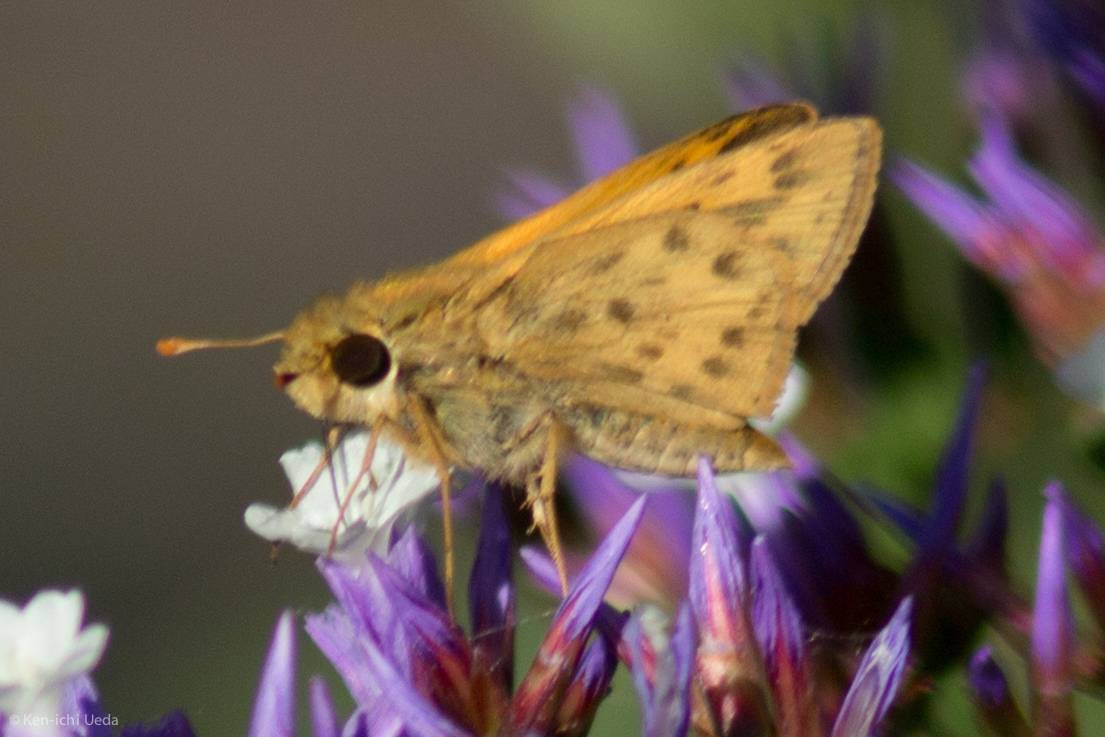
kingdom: Animalia
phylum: Arthropoda
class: Insecta
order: Lepidoptera
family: Hesperiidae
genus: Hylephila
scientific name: Hylephila phyleus
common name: Fiery skipper
